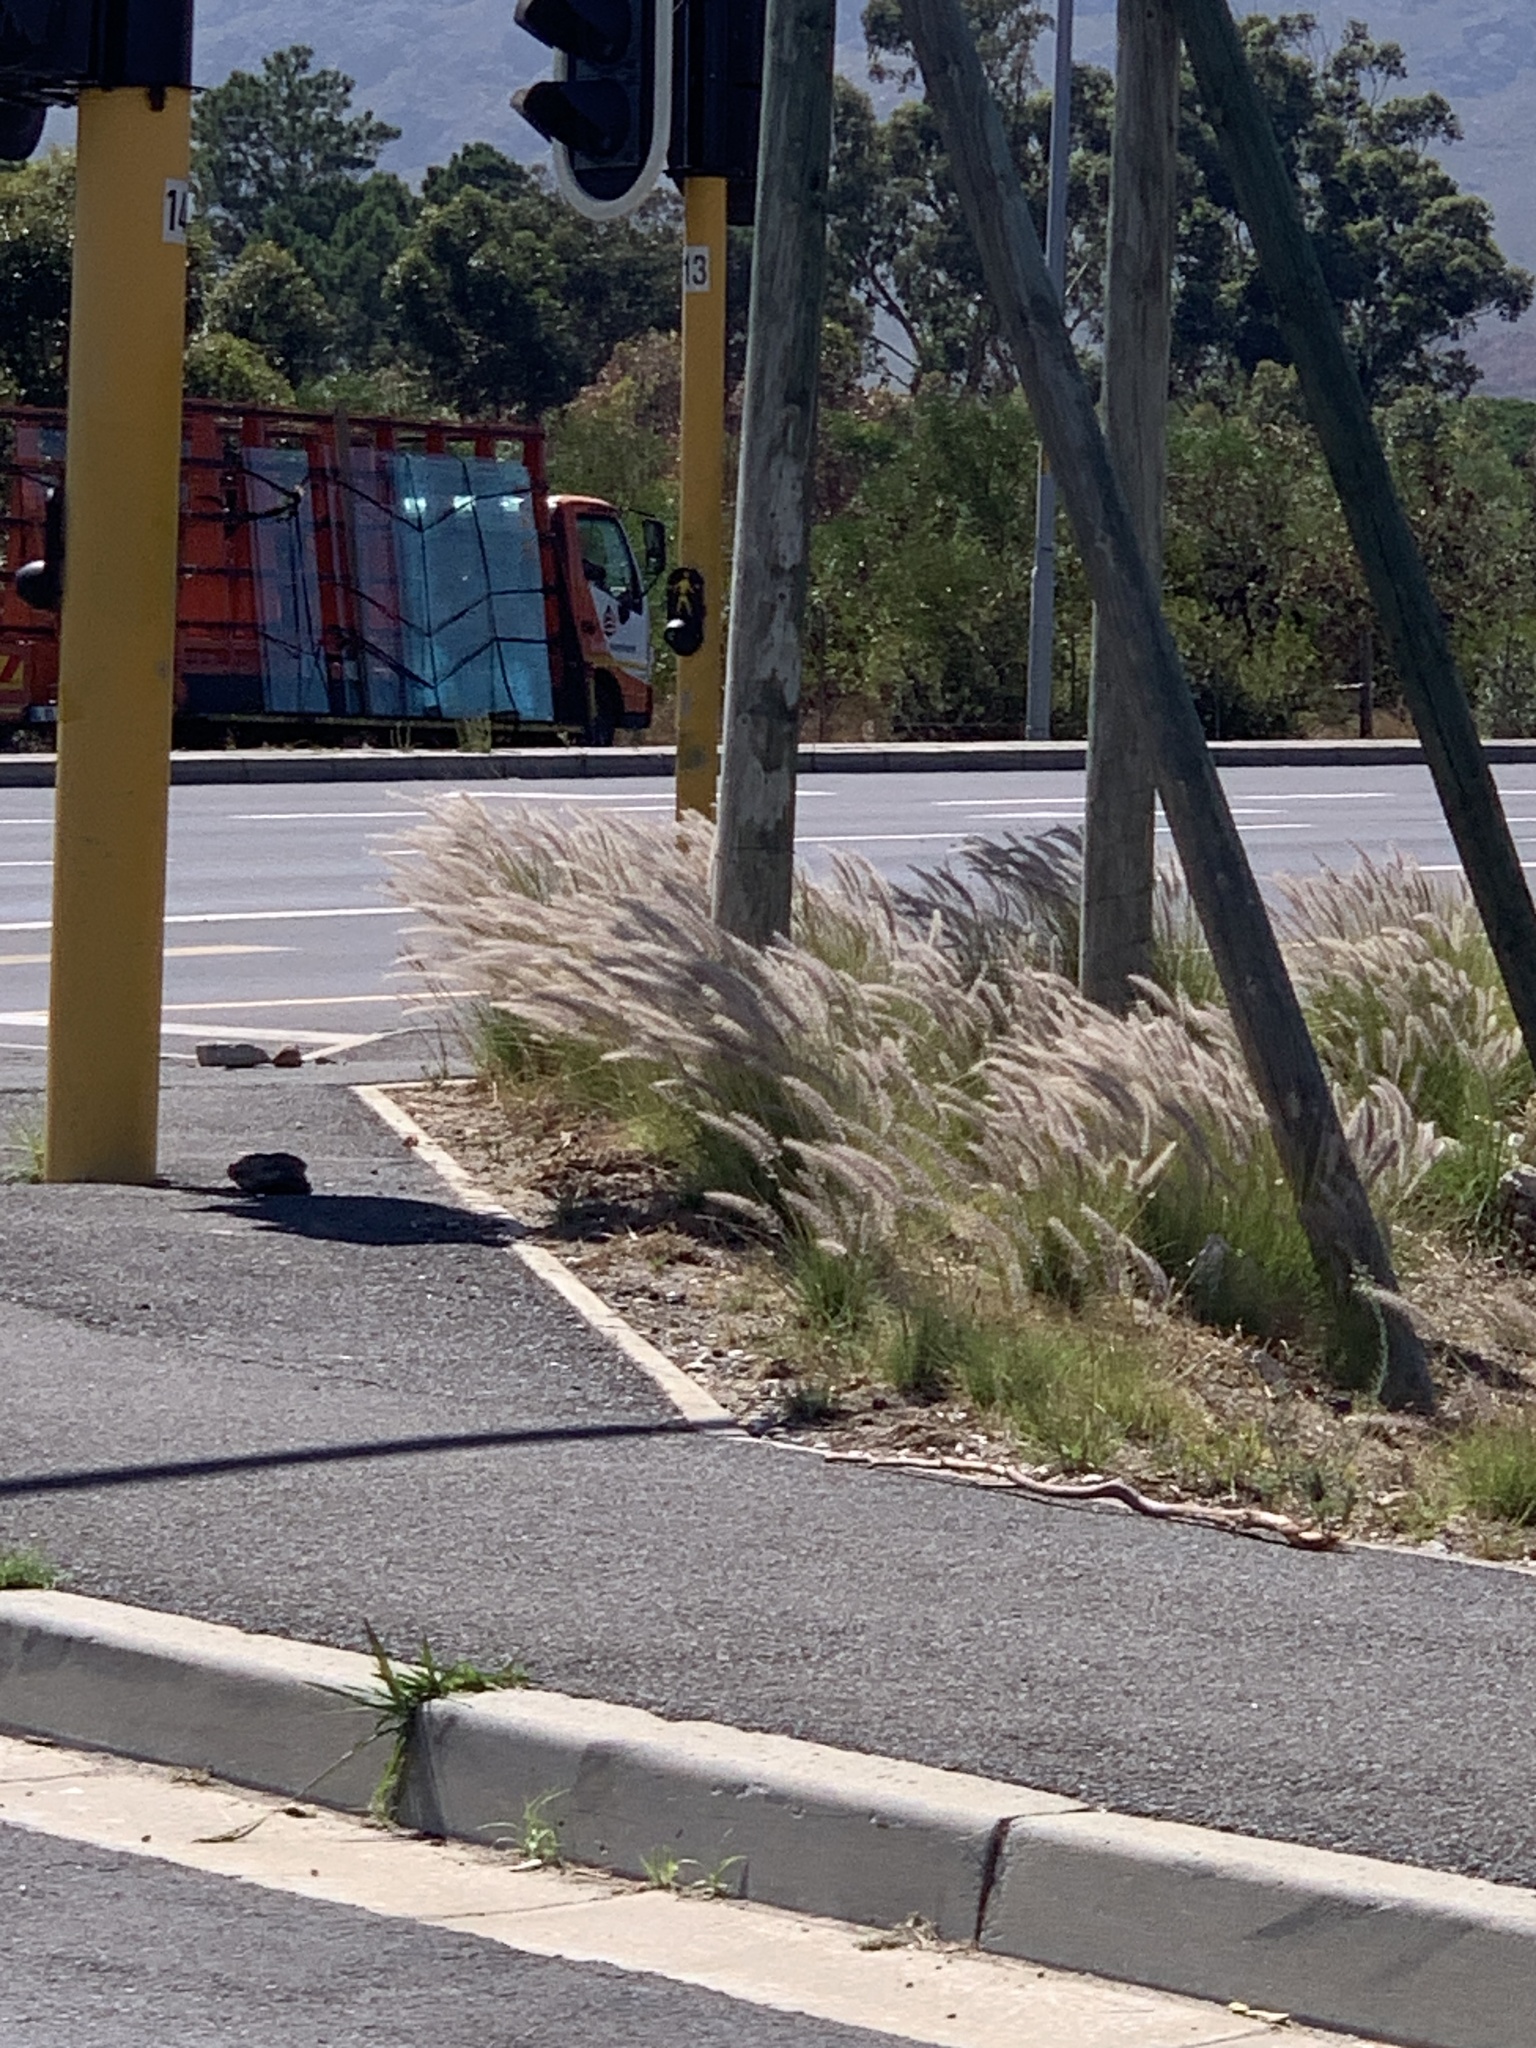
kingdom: Plantae
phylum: Tracheophyta
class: Liliopsida
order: Poales
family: Poaceae
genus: Cenchrus
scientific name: Cenchrus setaceus
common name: Crimson fountaingrass
